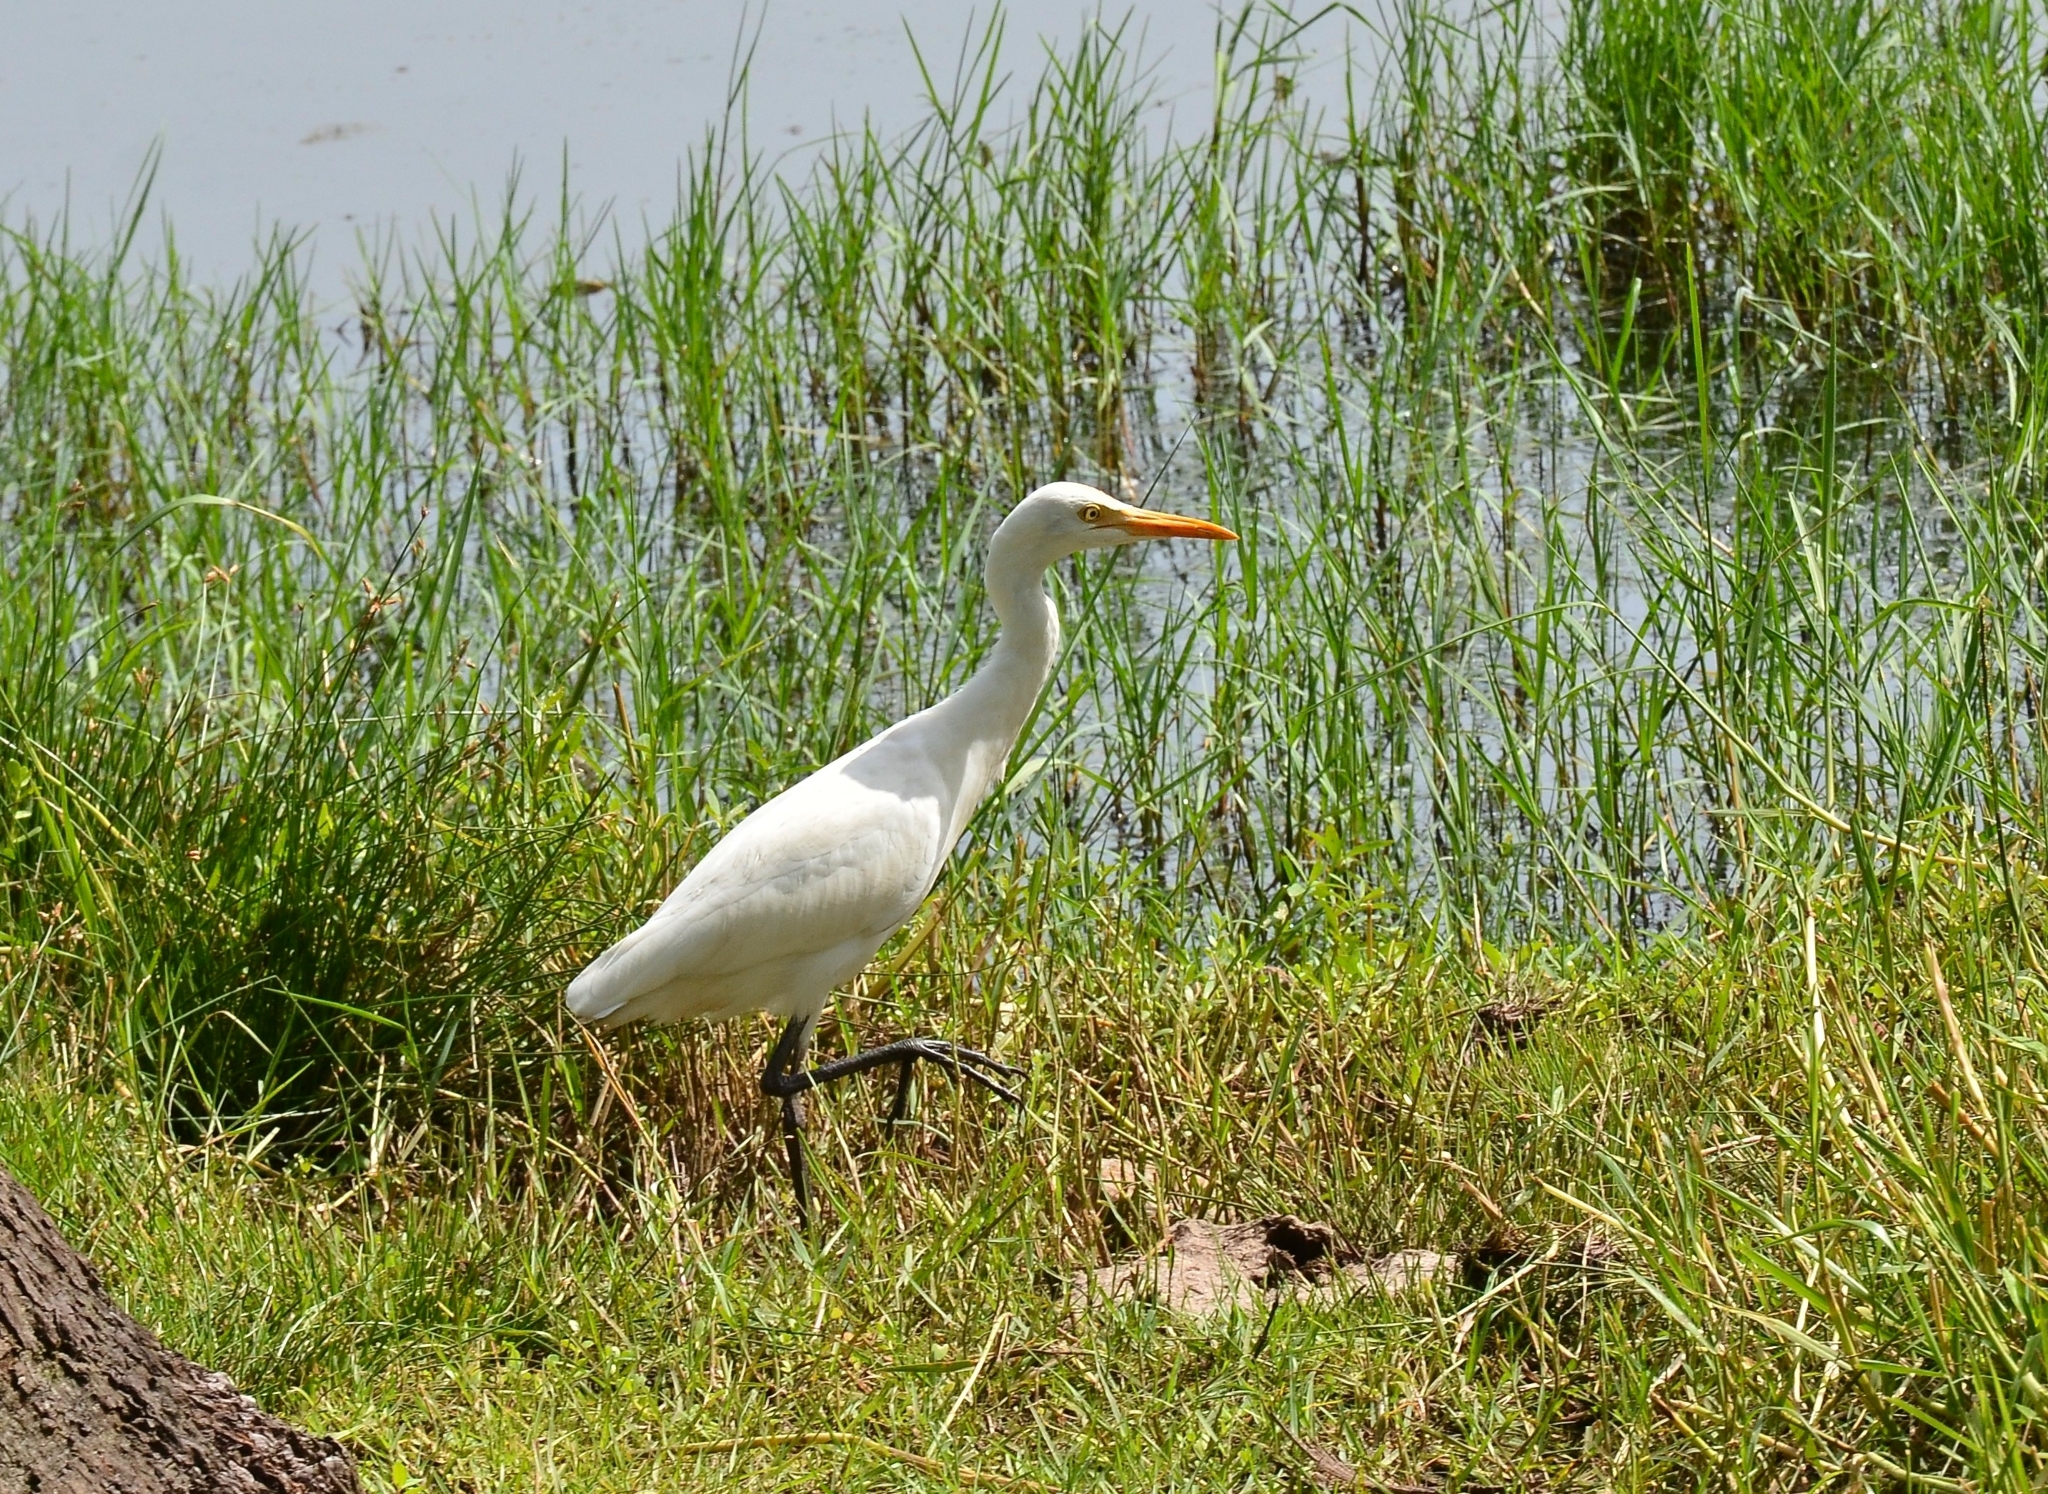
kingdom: Animalia
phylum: Chordata
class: Aves
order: Pelecaniformes
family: Ardeidae
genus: Bubulcus
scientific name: Bubulcus coromandus
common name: Eastern cattle egret
